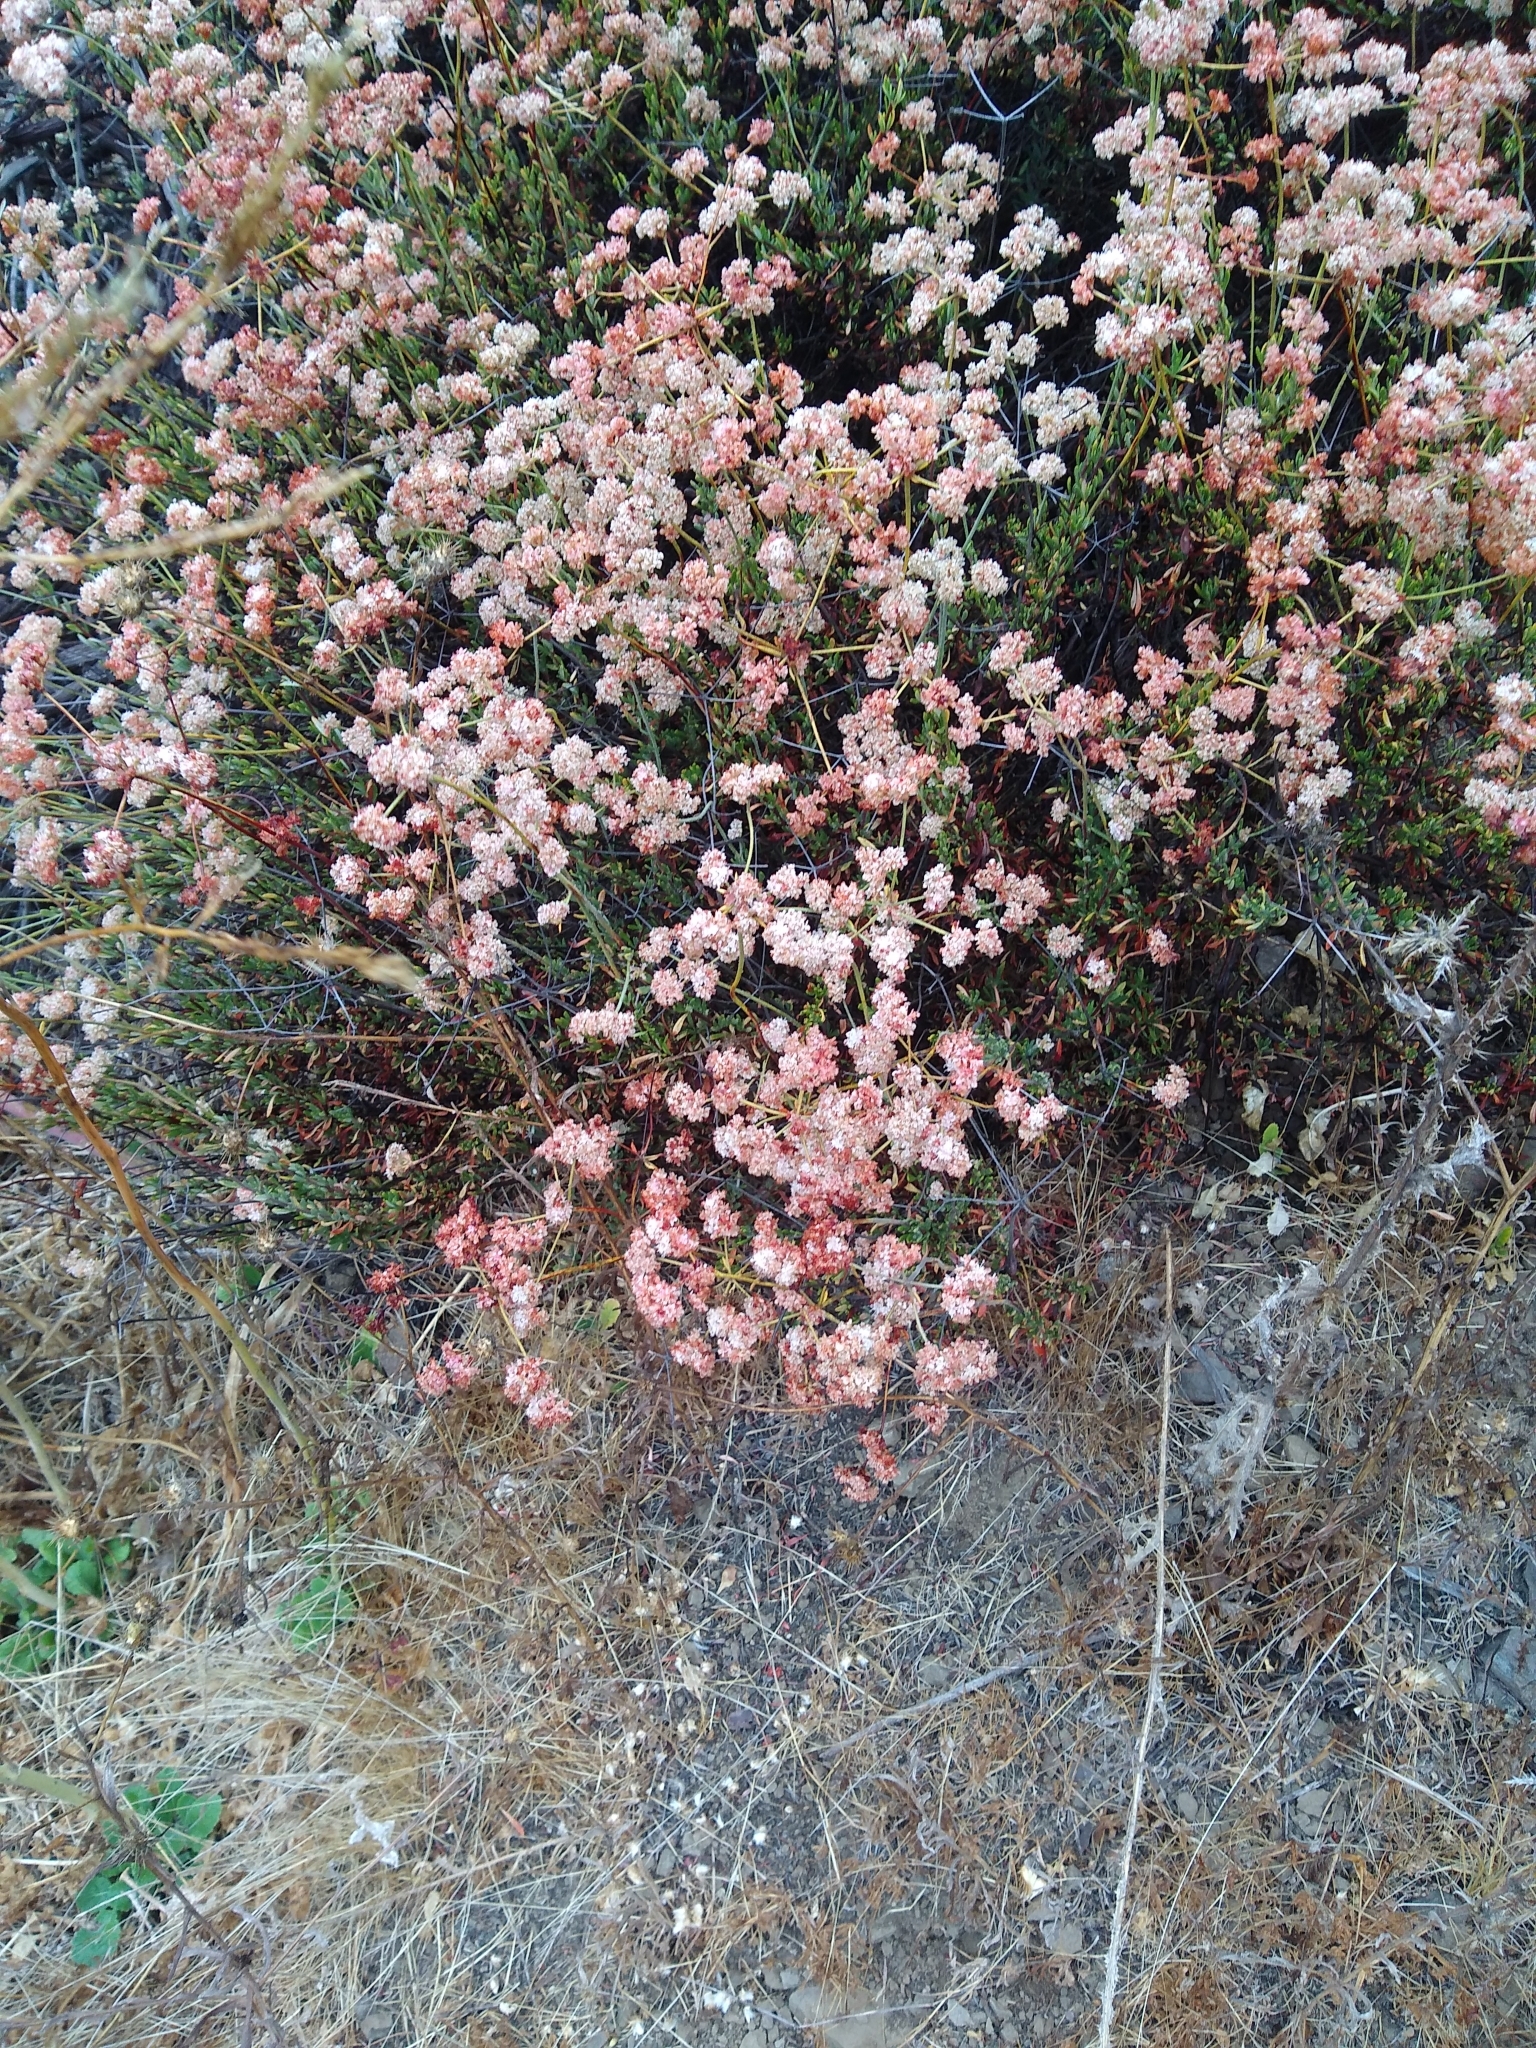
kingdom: Plantae
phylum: Tracheophyta
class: Magnoliopsida
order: Caryophyllales
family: Polygonaceae
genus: Eriogonum
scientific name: Eriogonum fasciculatum
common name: California wild buckwheat
